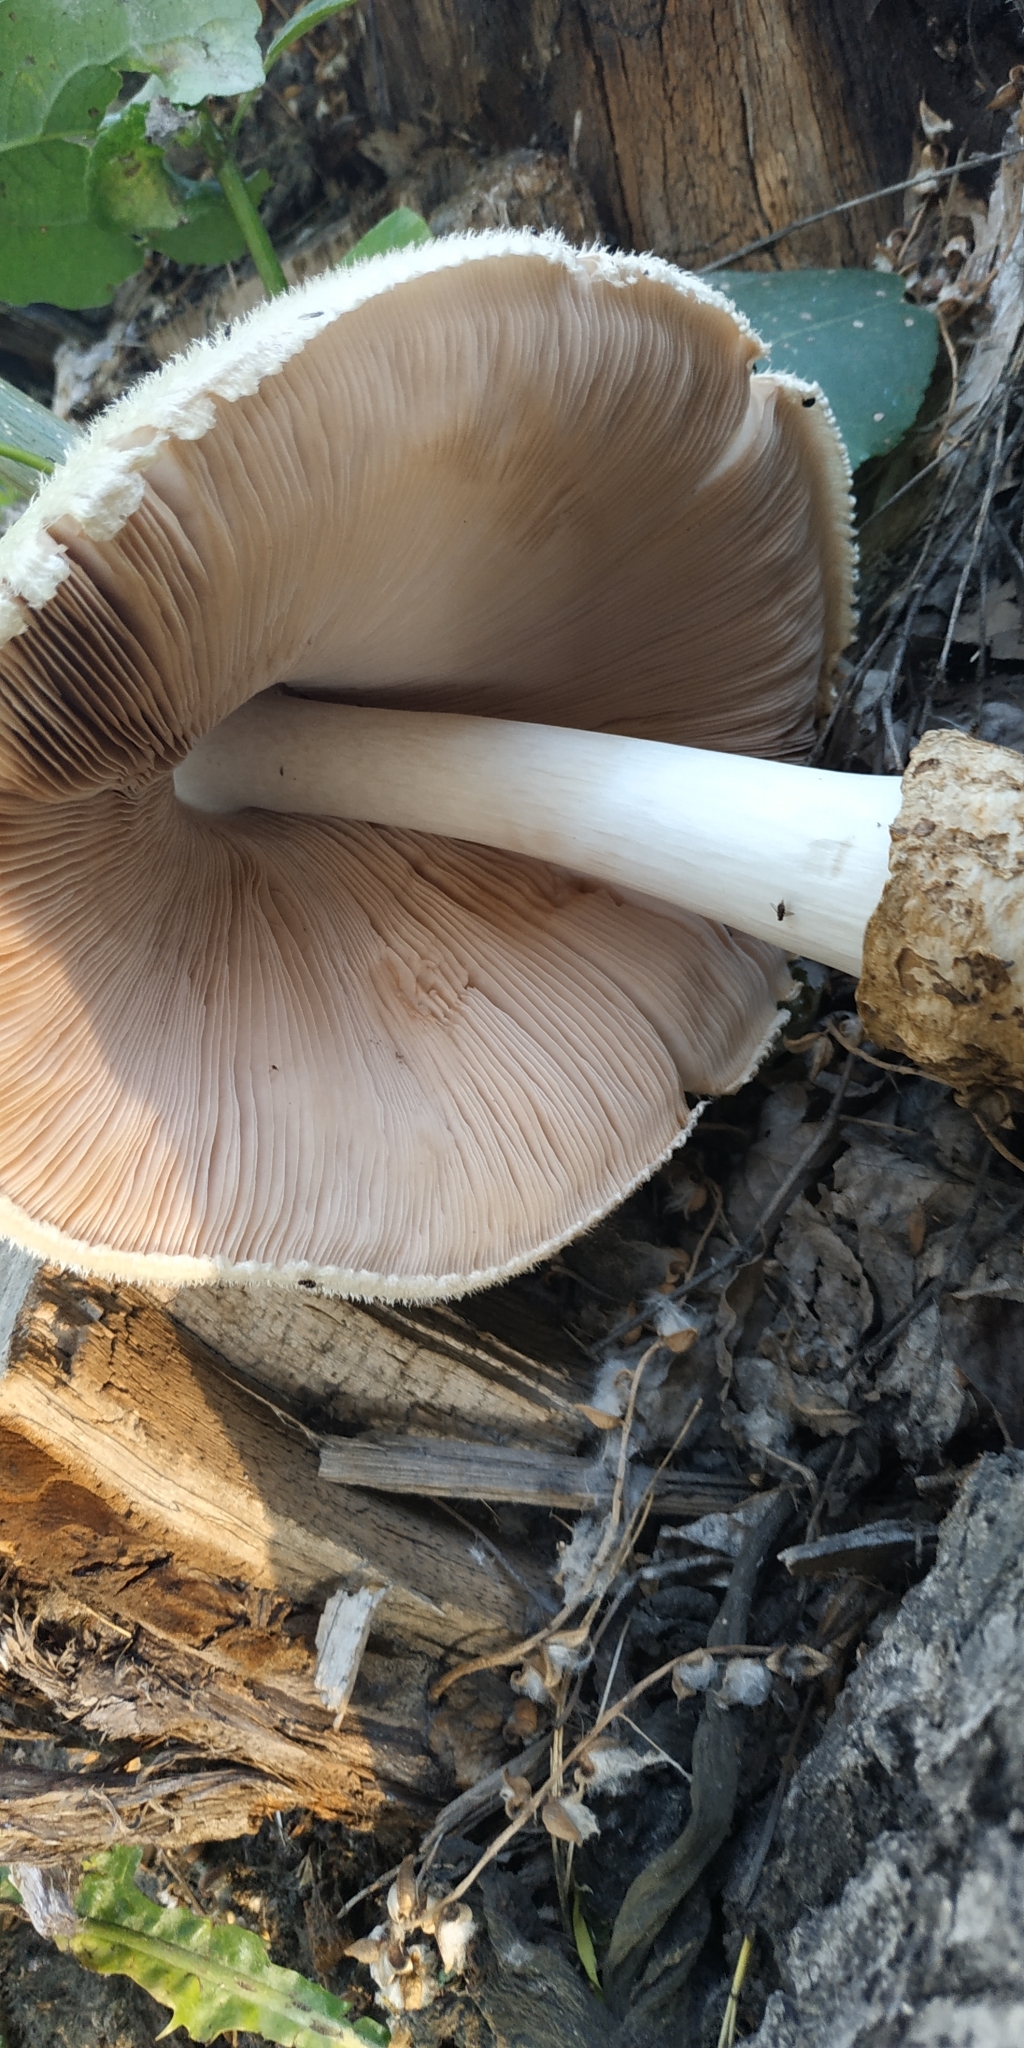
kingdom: Fungi
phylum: Basidiomycota
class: Agaricomycetes
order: Agaricales
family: Pluteaceae
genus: Volvariella
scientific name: Volvariella bombycina
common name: Silky rosegill
